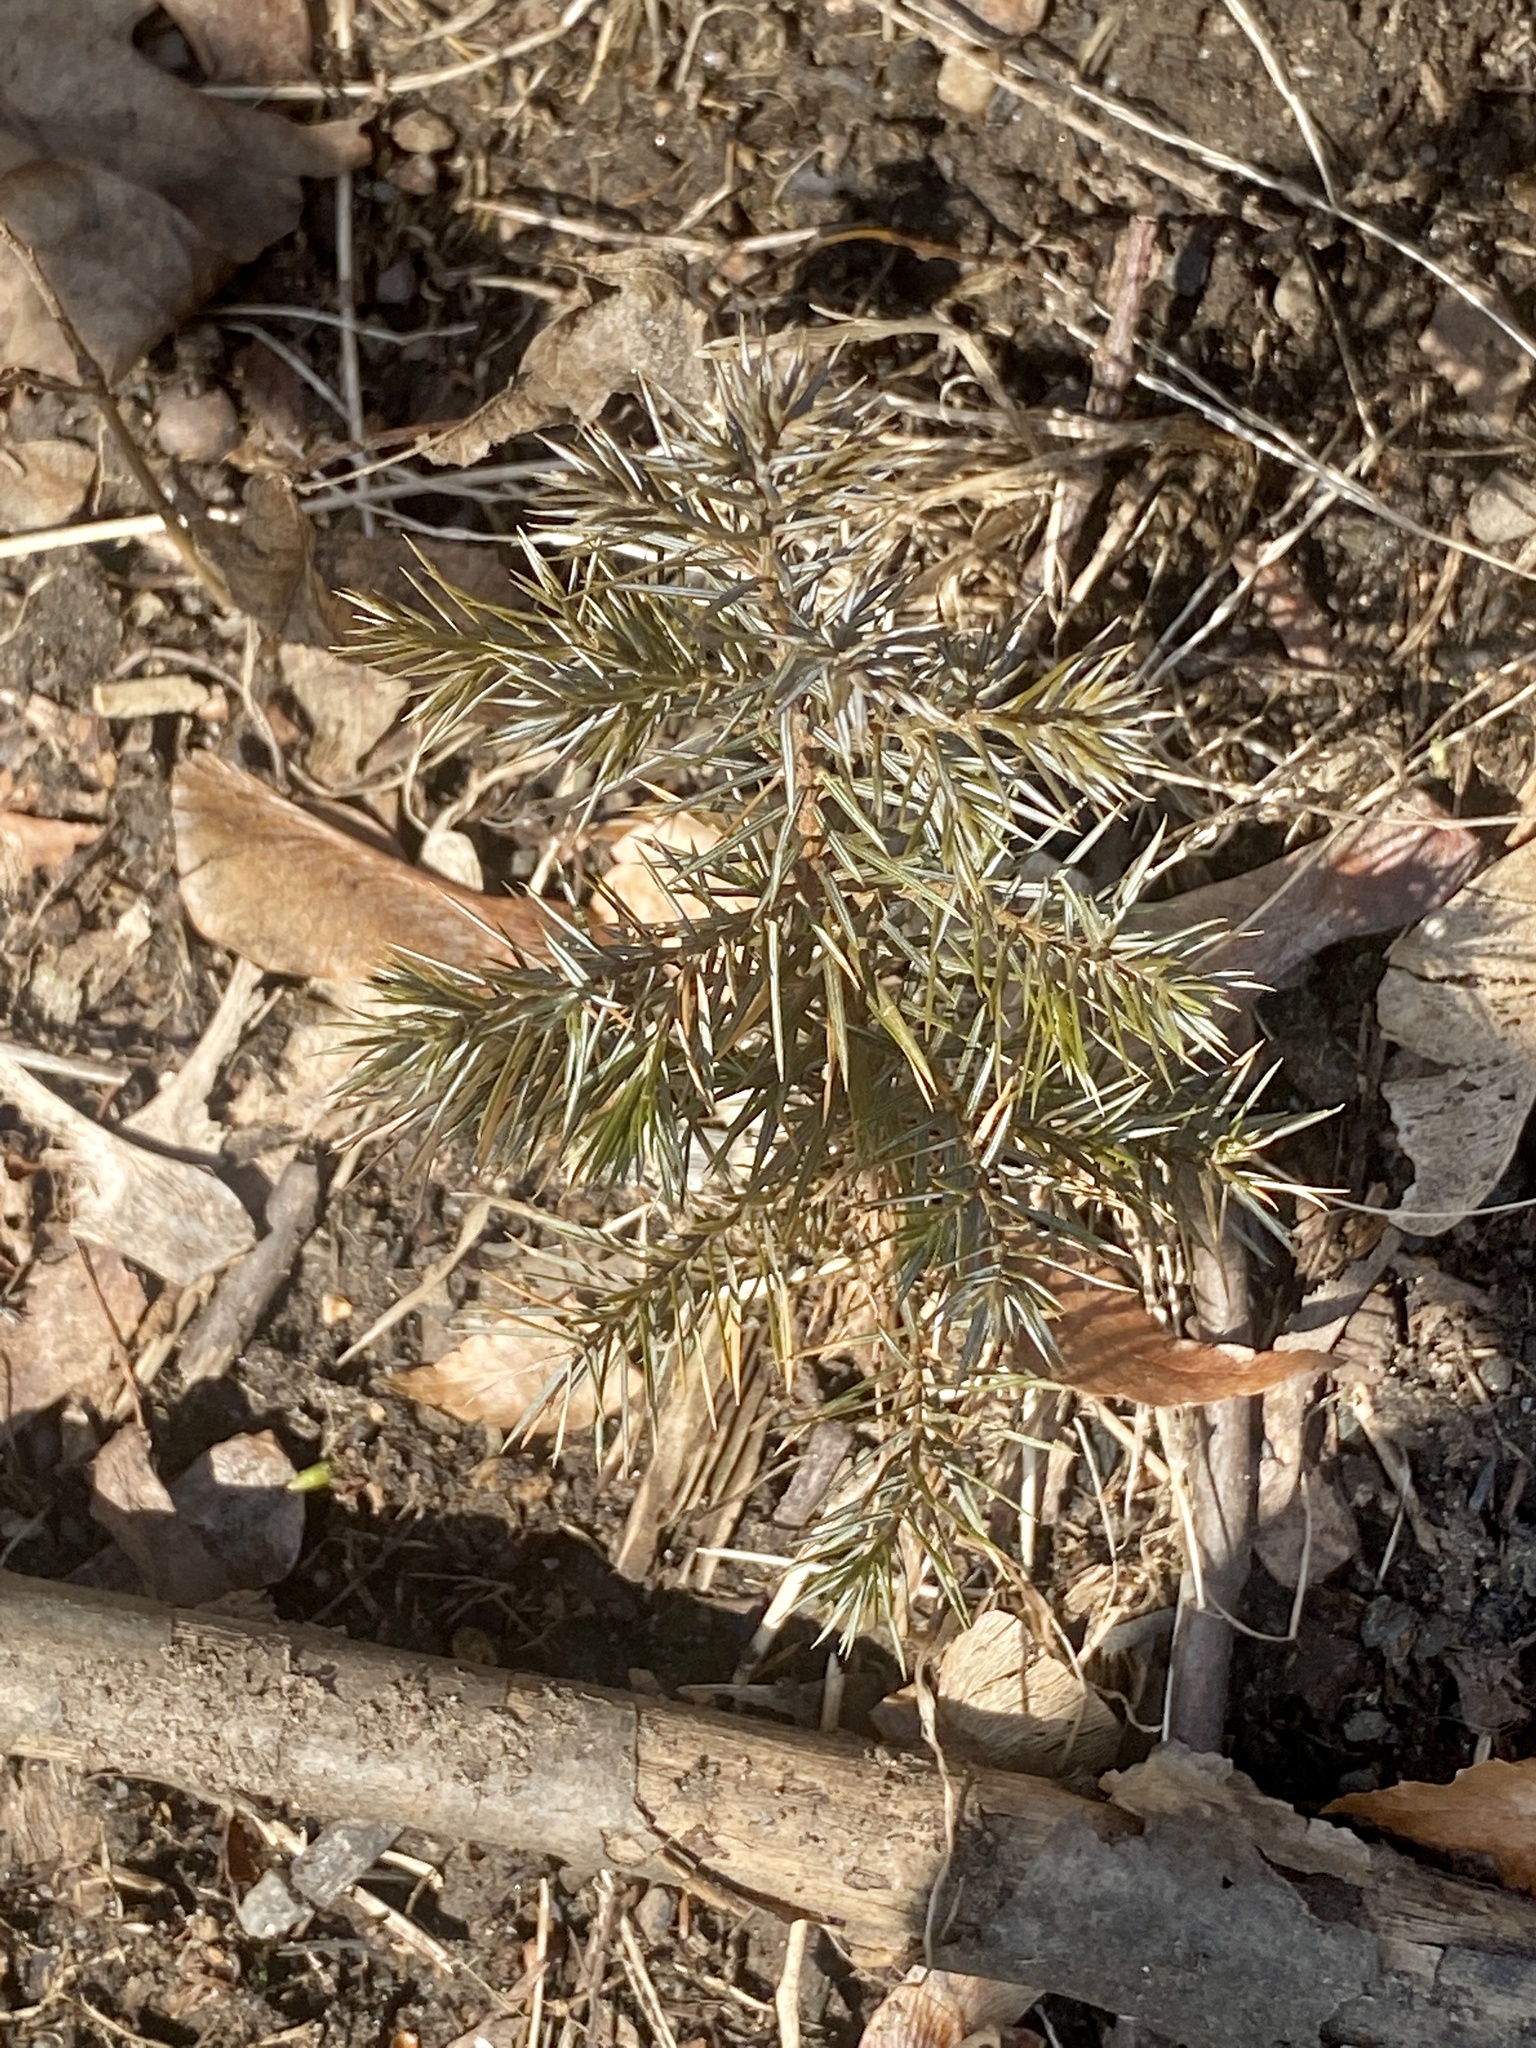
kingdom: Plantae
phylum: Tracheophyta
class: Pinopsida
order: Pinales
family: Cupressaceae
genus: Juniperus
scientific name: Juniperus virginiana
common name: Red juniper
